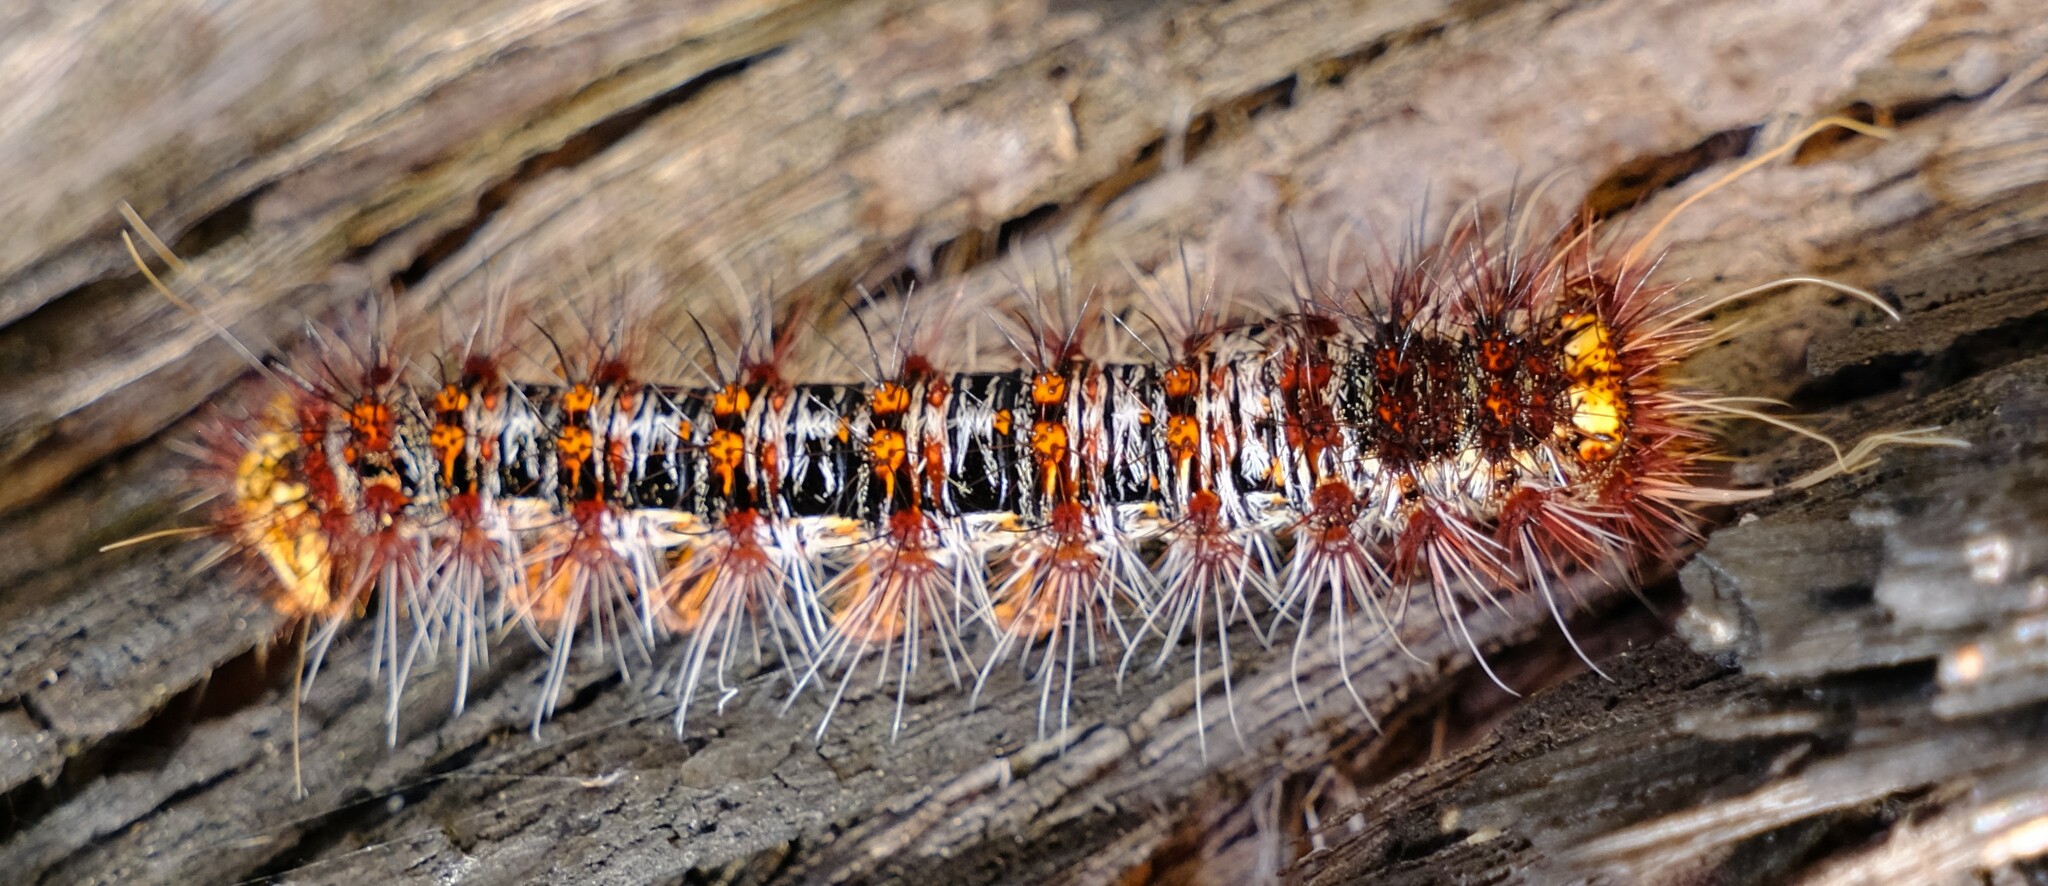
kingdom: Animalia
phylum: Arthropoda
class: Insecta
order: Lepidoptera
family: Anthelidae
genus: Chelepteryx
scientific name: Chelepteryx collesi
